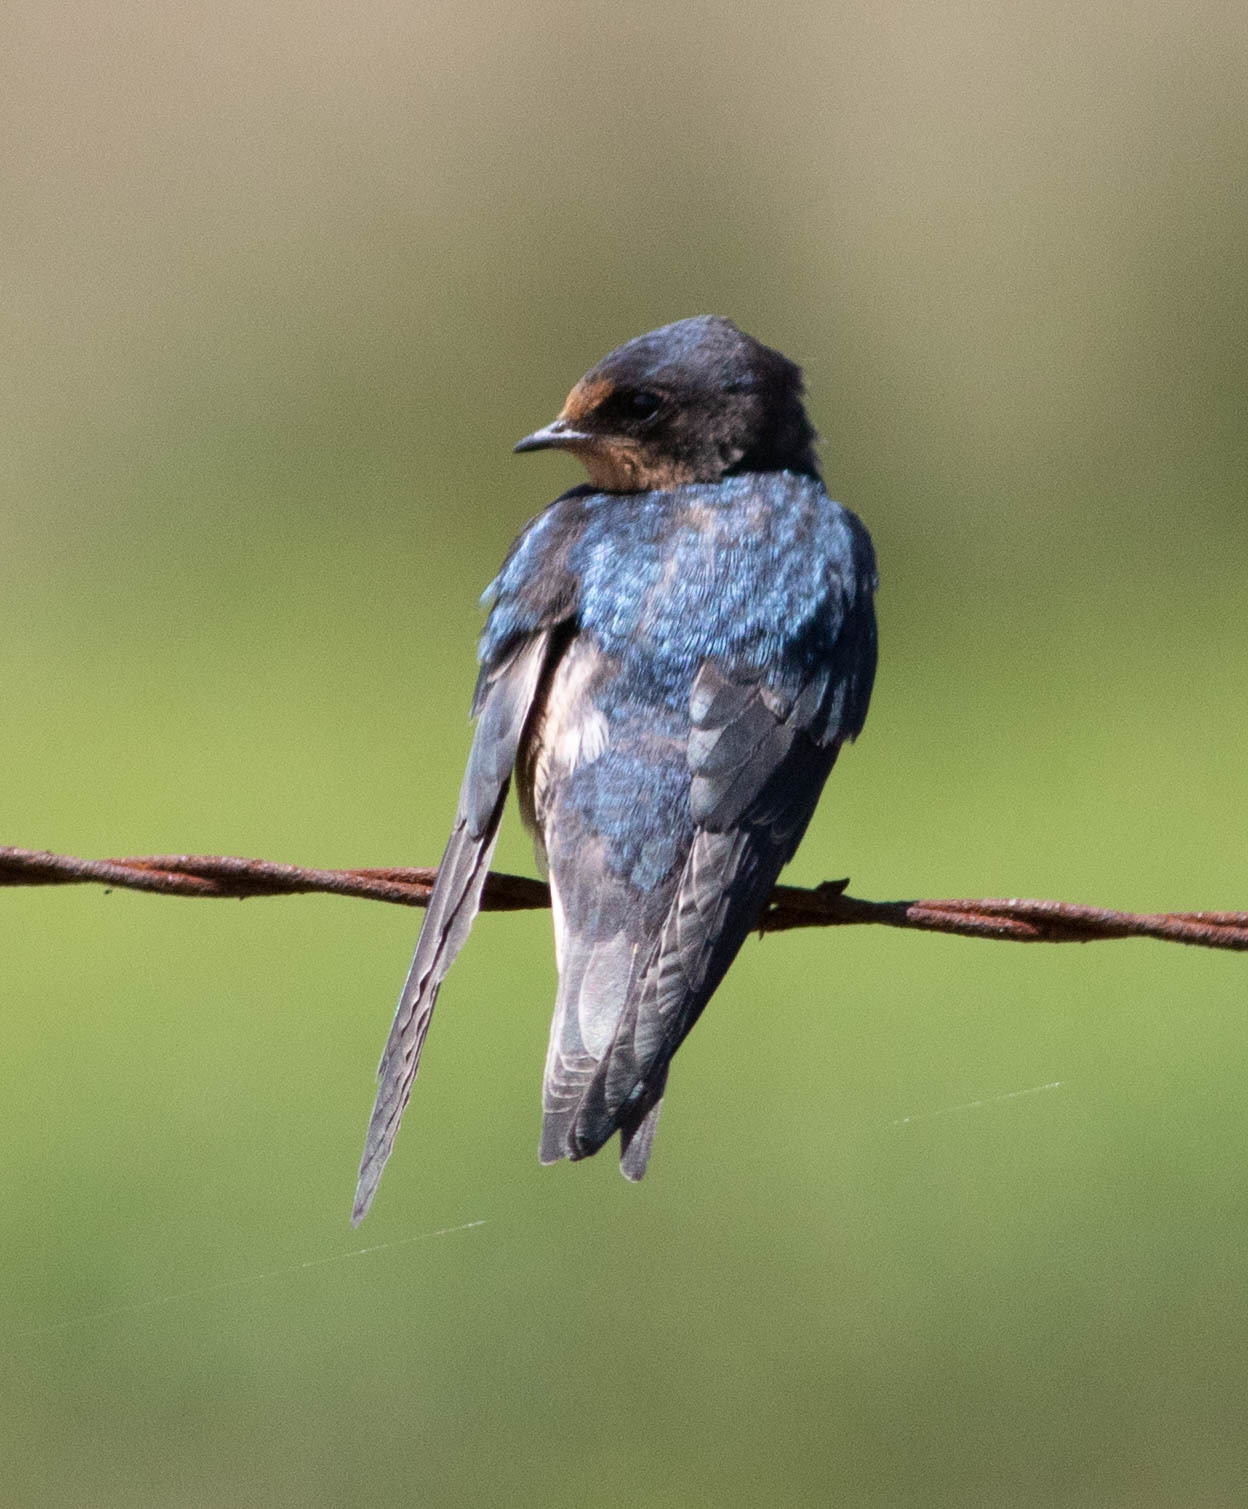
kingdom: Animalia
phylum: Chordata
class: Aves
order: Passeriformes
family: Hirundinidae
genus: Hirundo
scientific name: Hirundo rustica
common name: Barn swallow
